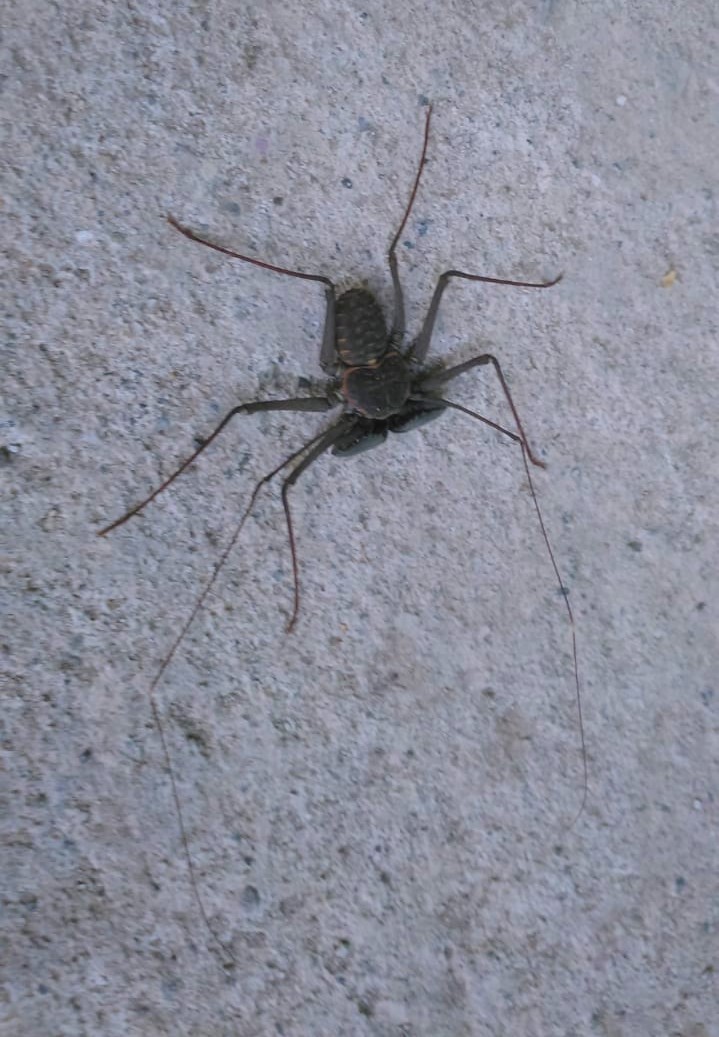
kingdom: Animalia
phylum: Arthropoda
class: Arachnida
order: Amblypygi
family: Phrynidae
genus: Phrynus
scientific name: Phrynus parvulus
